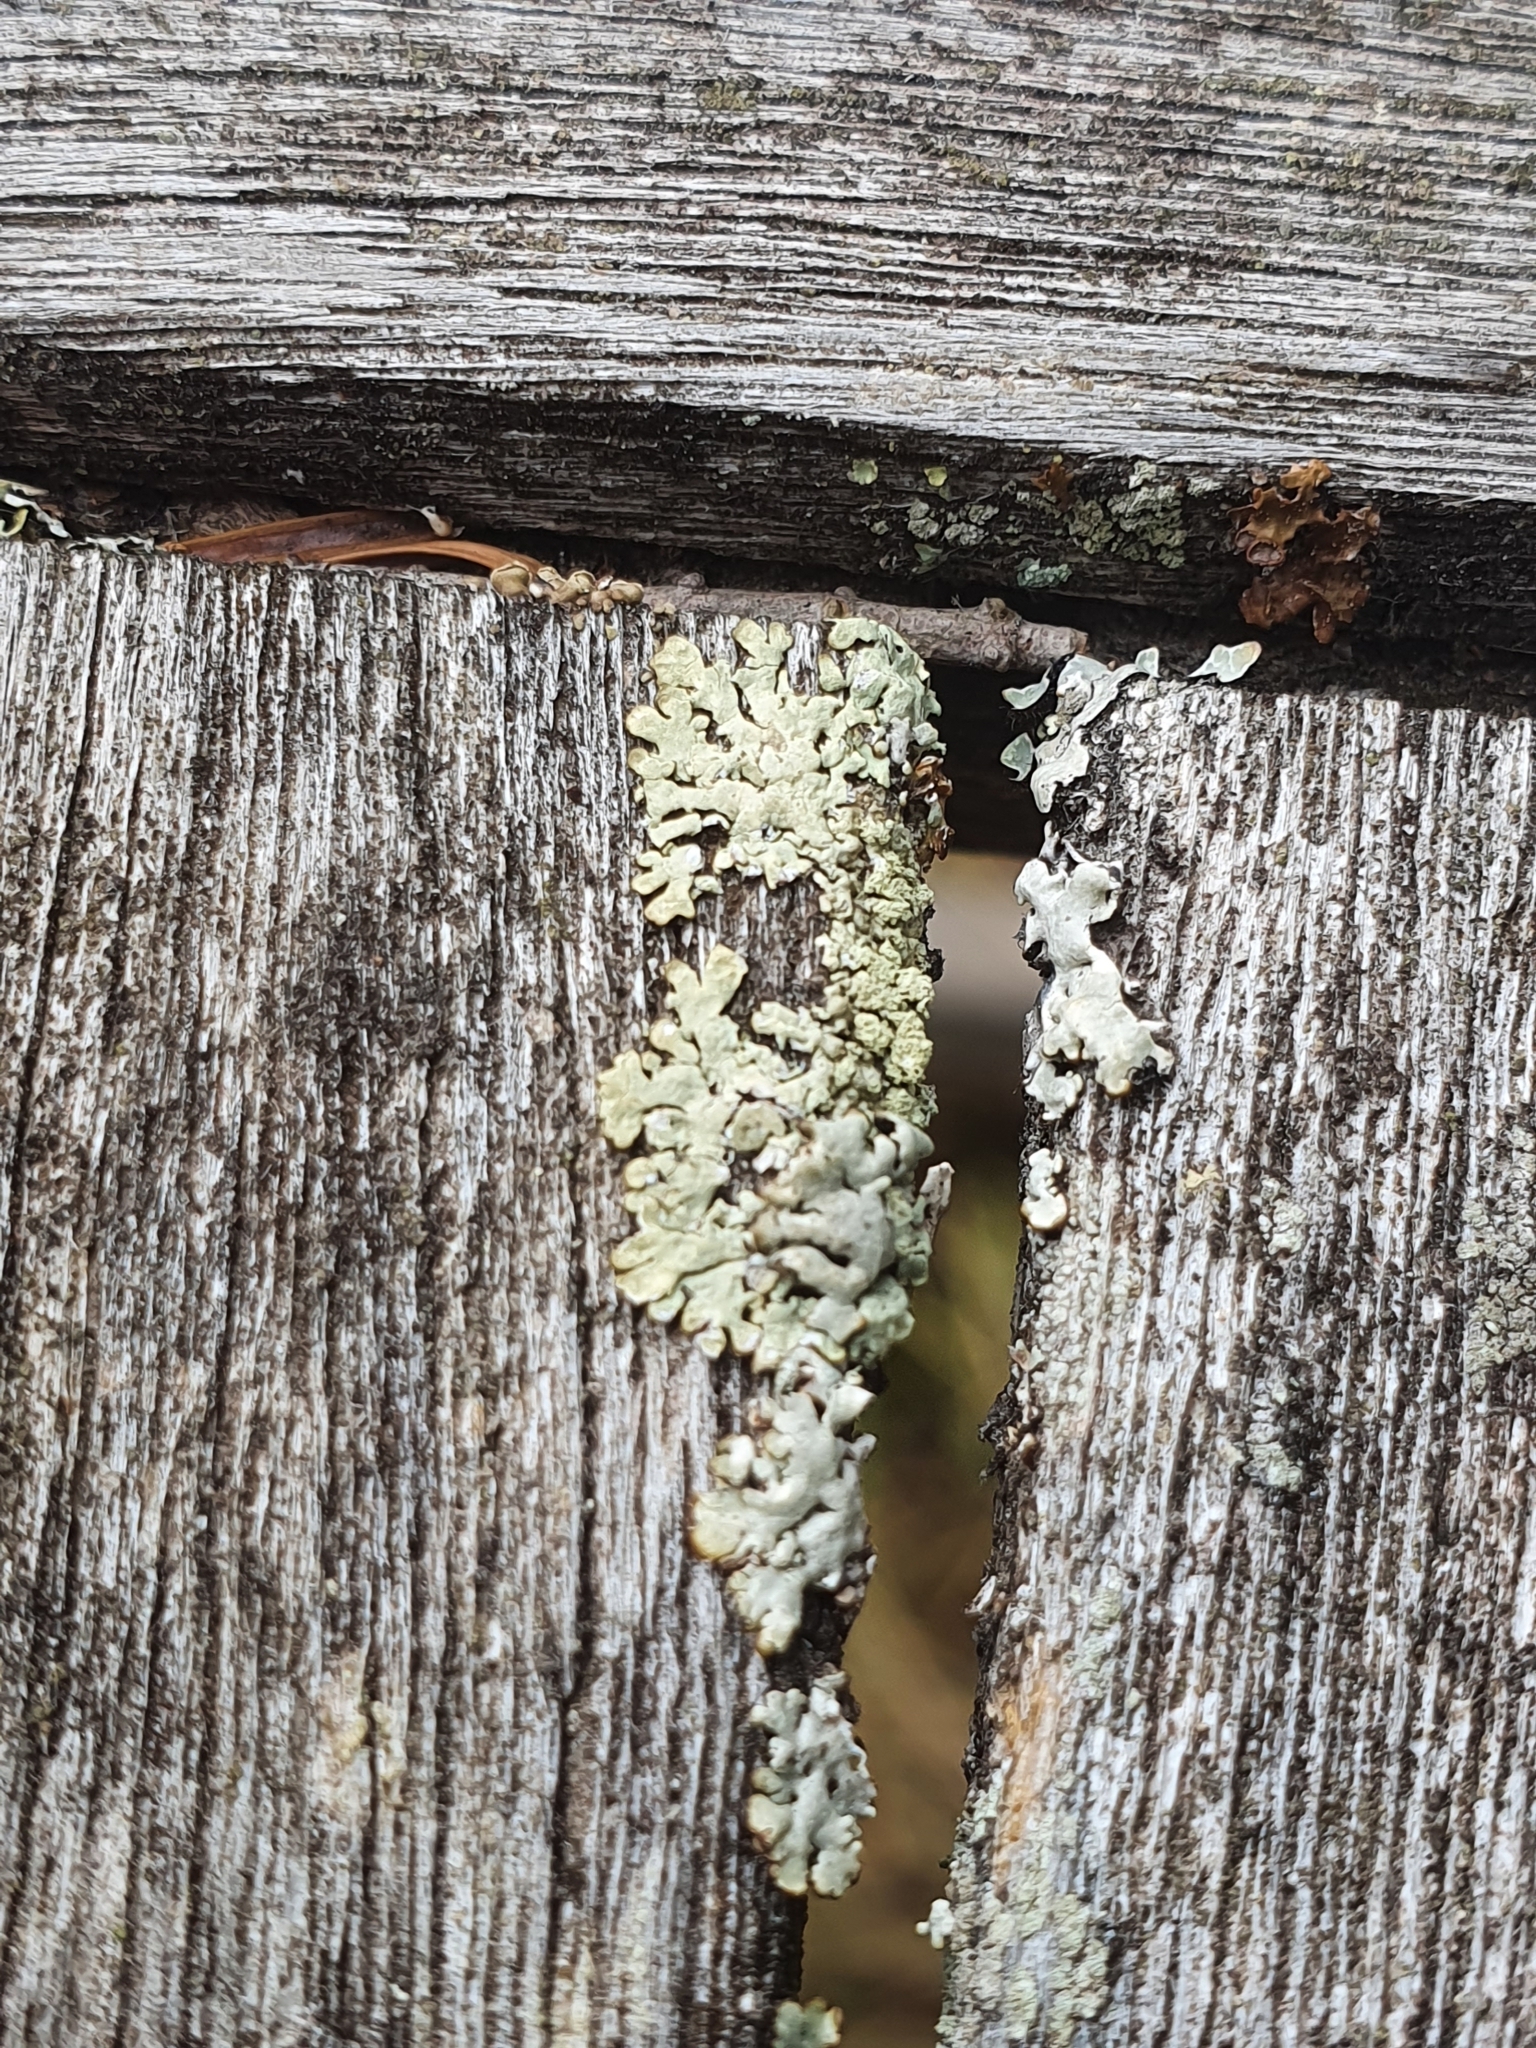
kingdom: Fungi
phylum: Ascomycota
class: Lecanoromycetes
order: Lecanorales
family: Parmeliaceae
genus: Parmeliopsis
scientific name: Parmeliopsis ambigua
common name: Green starburst lichen
